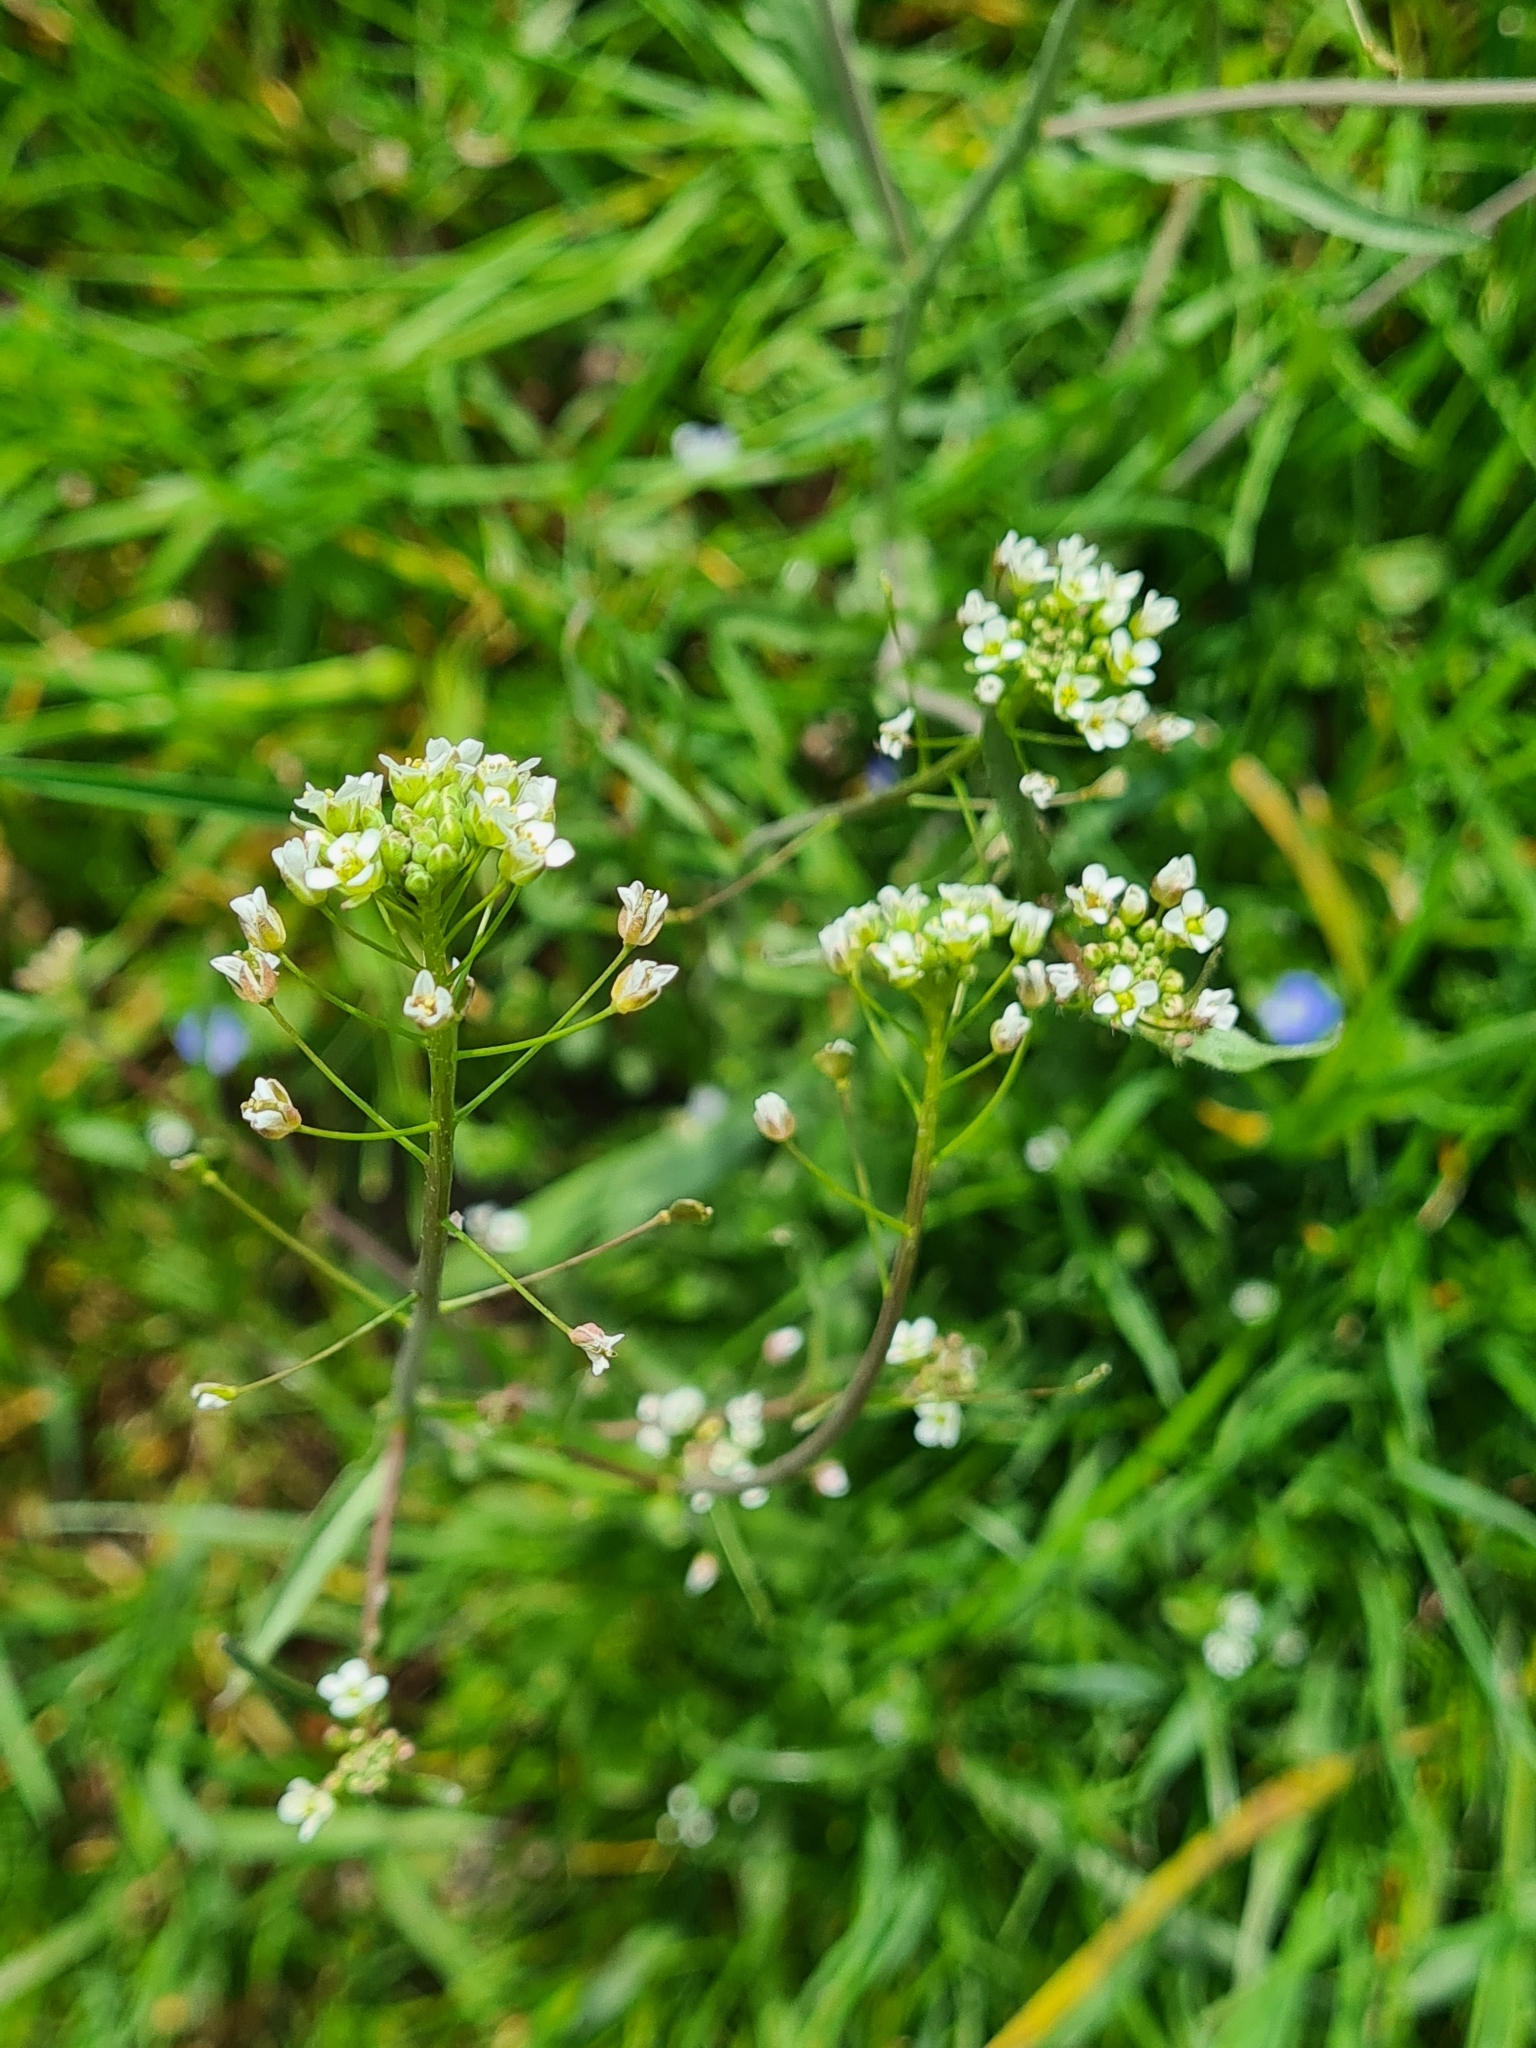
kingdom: Plantae
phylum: Tracheophyta
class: Magnoliopsida
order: Brassicales
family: Brassicaceae
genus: Capsella
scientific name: Capsella bursa-pastoris
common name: Shepherd's purse
